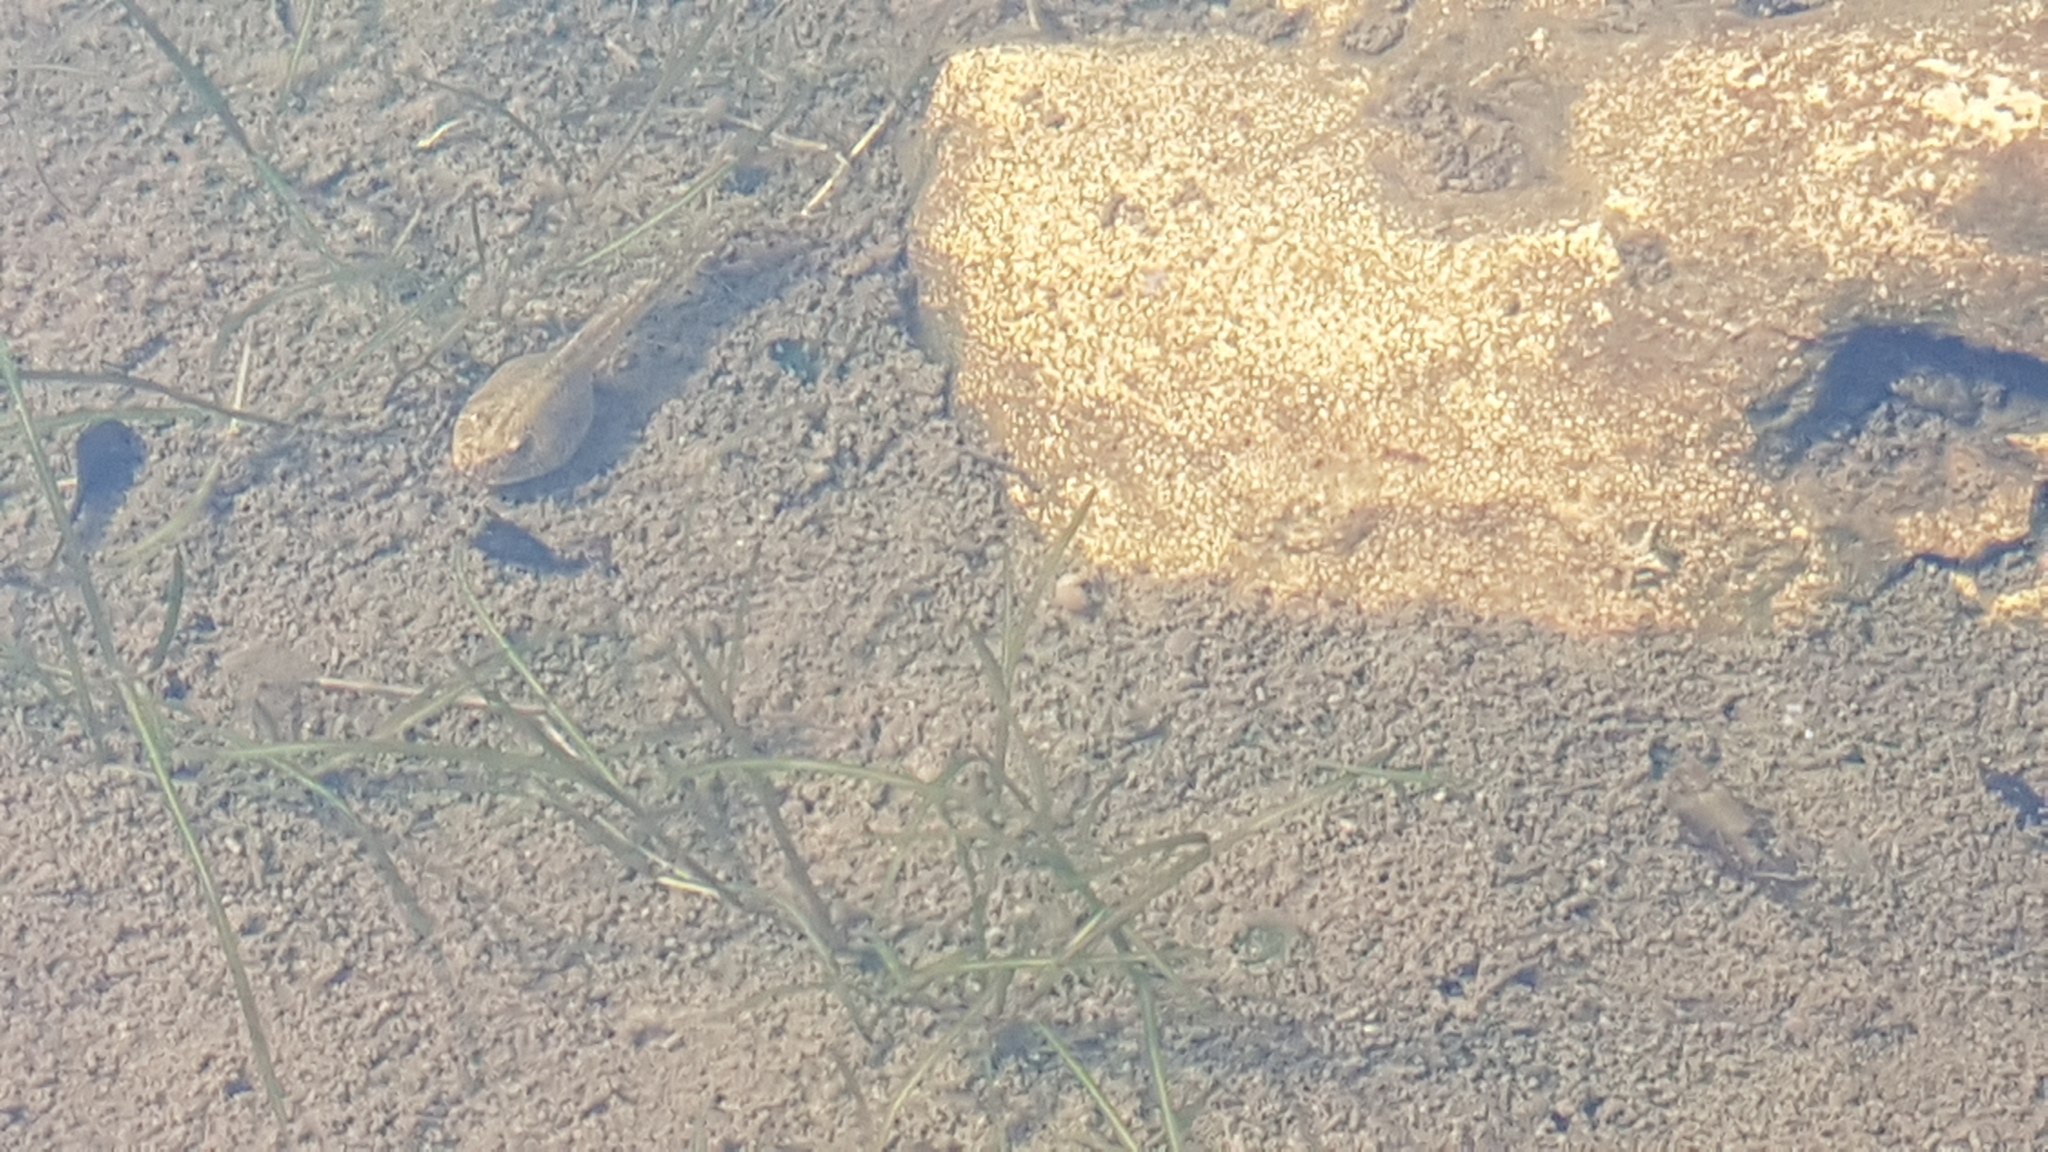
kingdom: Animalia
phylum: Chordata
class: Amphibia
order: Anura
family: Ranidae
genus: Rana
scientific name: Rana temporaria
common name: Common frog
